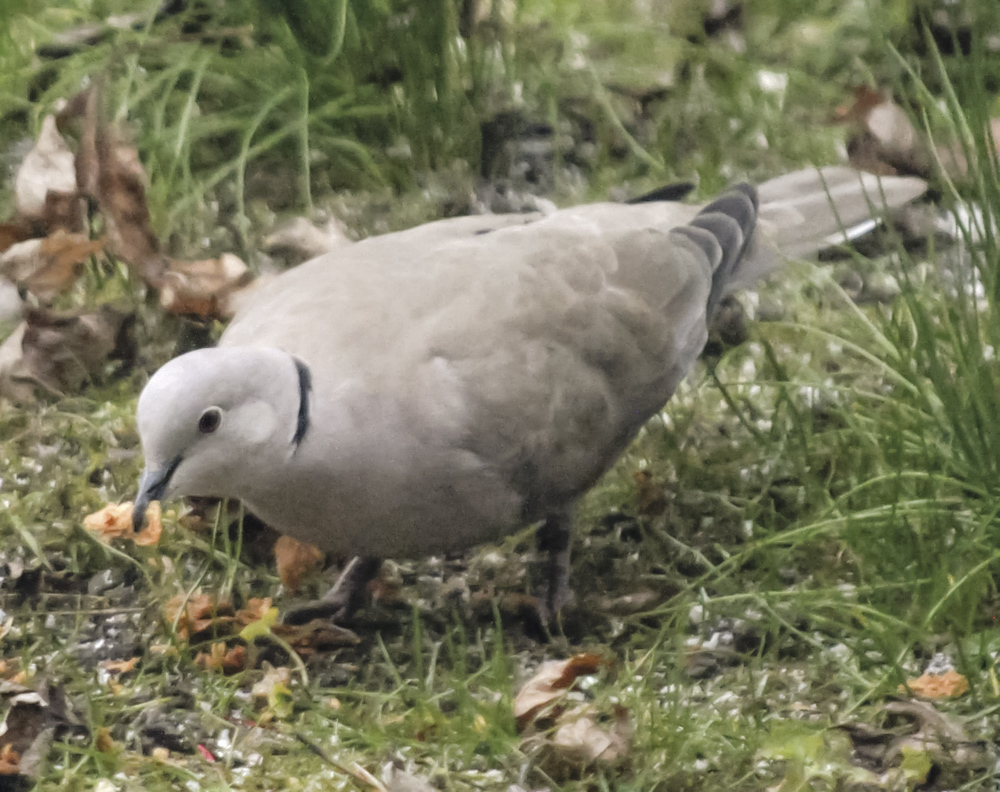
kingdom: Animalia
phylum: Chordata
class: Aves
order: Columbiformes
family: Columbidae
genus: Streptopelia
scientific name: Streptopelia decaocto
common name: Eurasian collared dove
